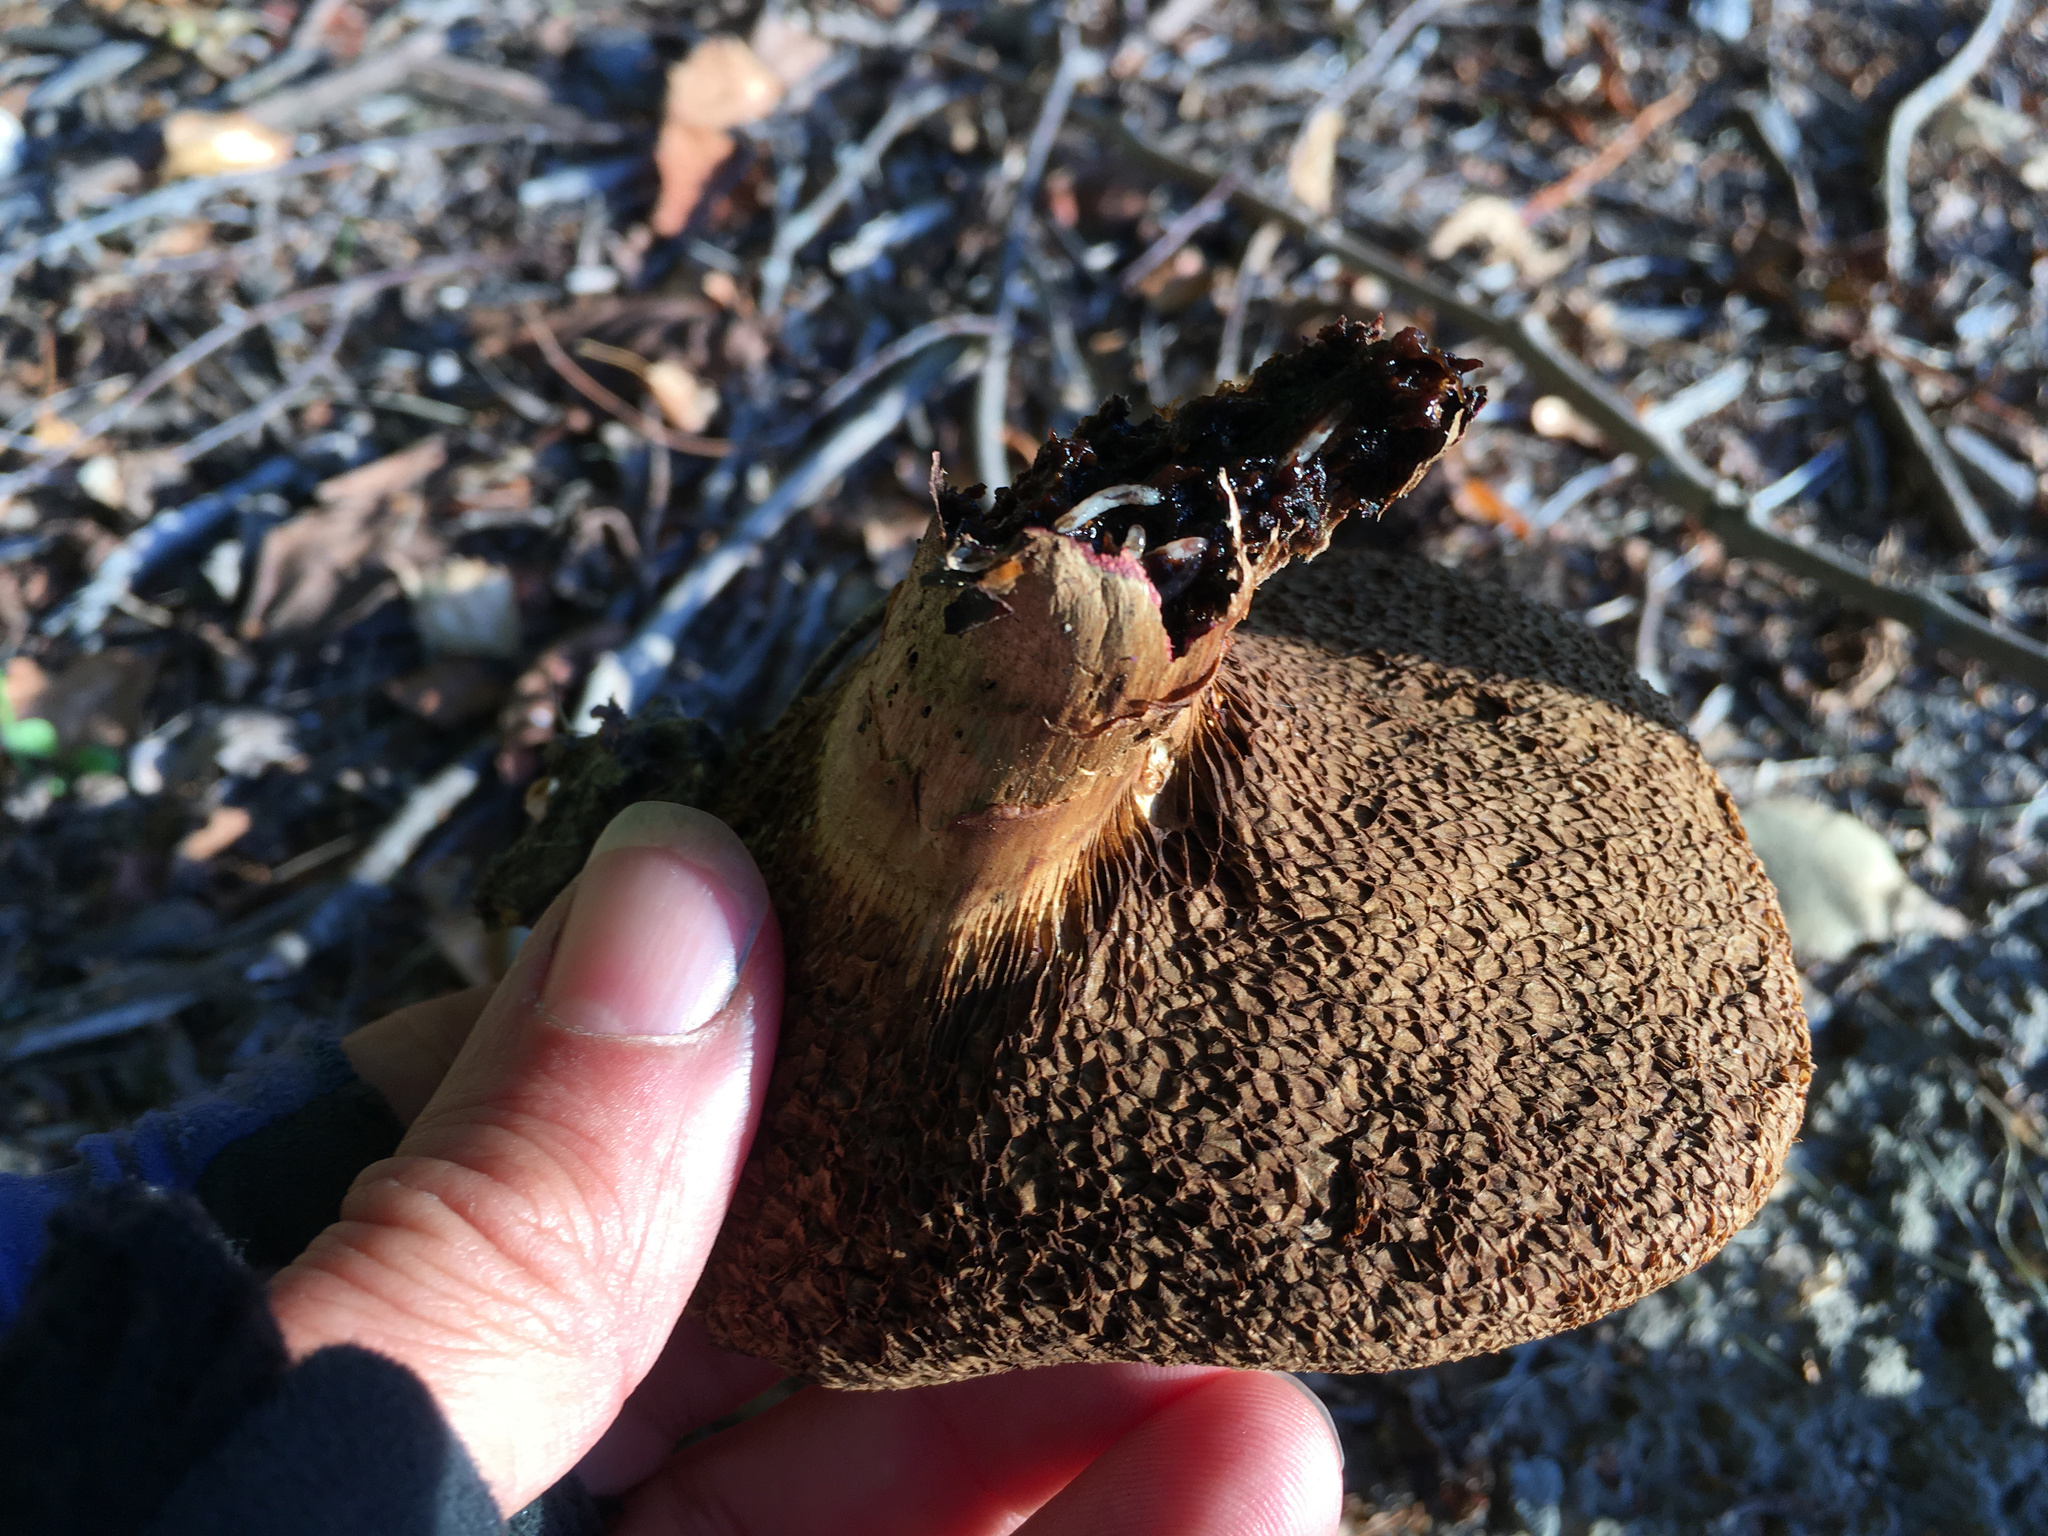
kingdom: Fungi
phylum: Basidiomycota
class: Agaricomycetes
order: Boletales
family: Boletaceae
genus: Leccinum
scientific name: Leccinum scabrum
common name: Blushing bolete
